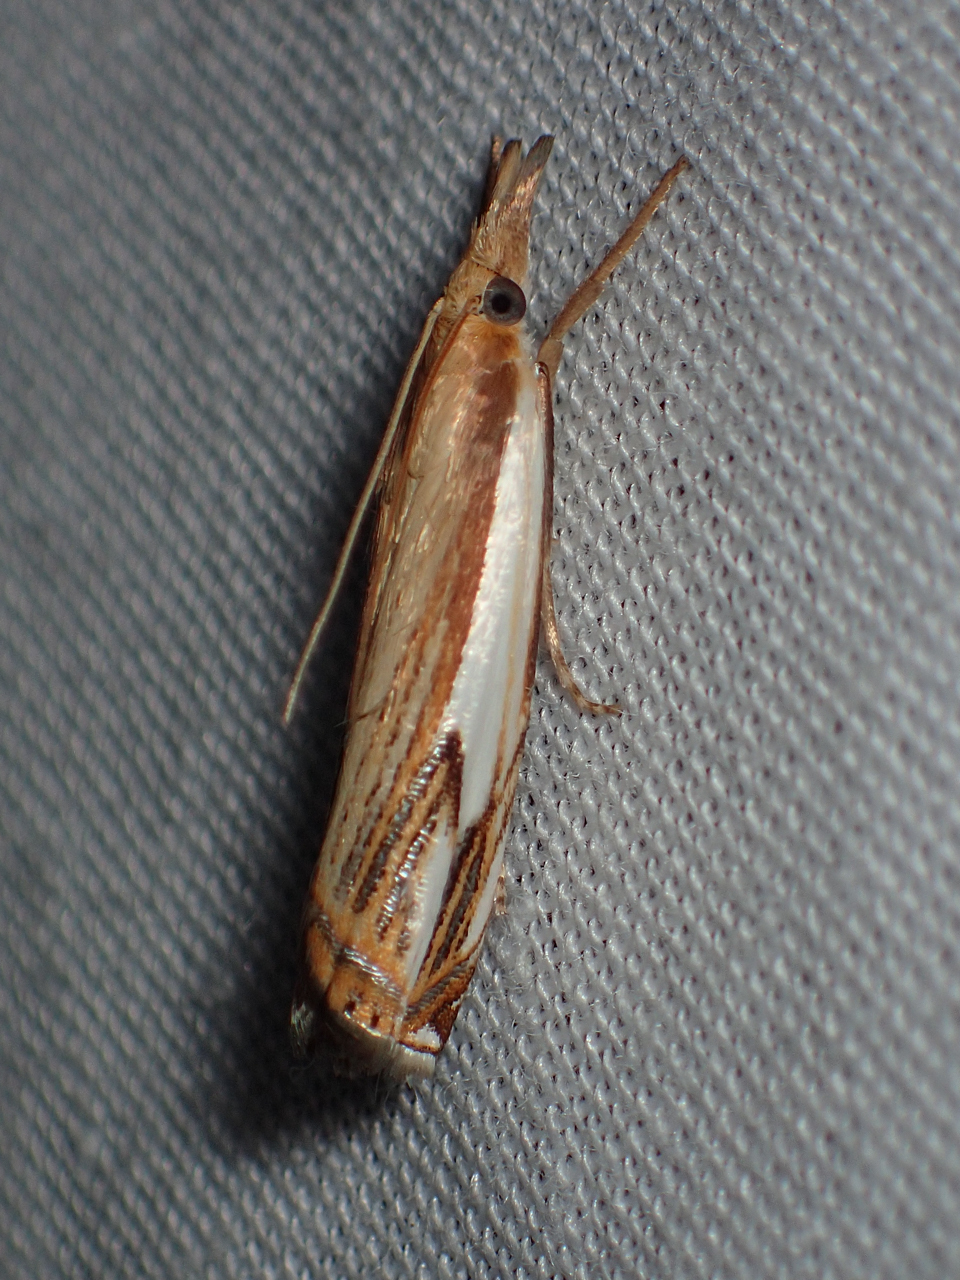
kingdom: Animalia
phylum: Arthropoda
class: Insecta
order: Lepidoptera
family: Crambidae
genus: Crambus
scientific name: Crambus agitatellus
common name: Double-banded grass-veneer
